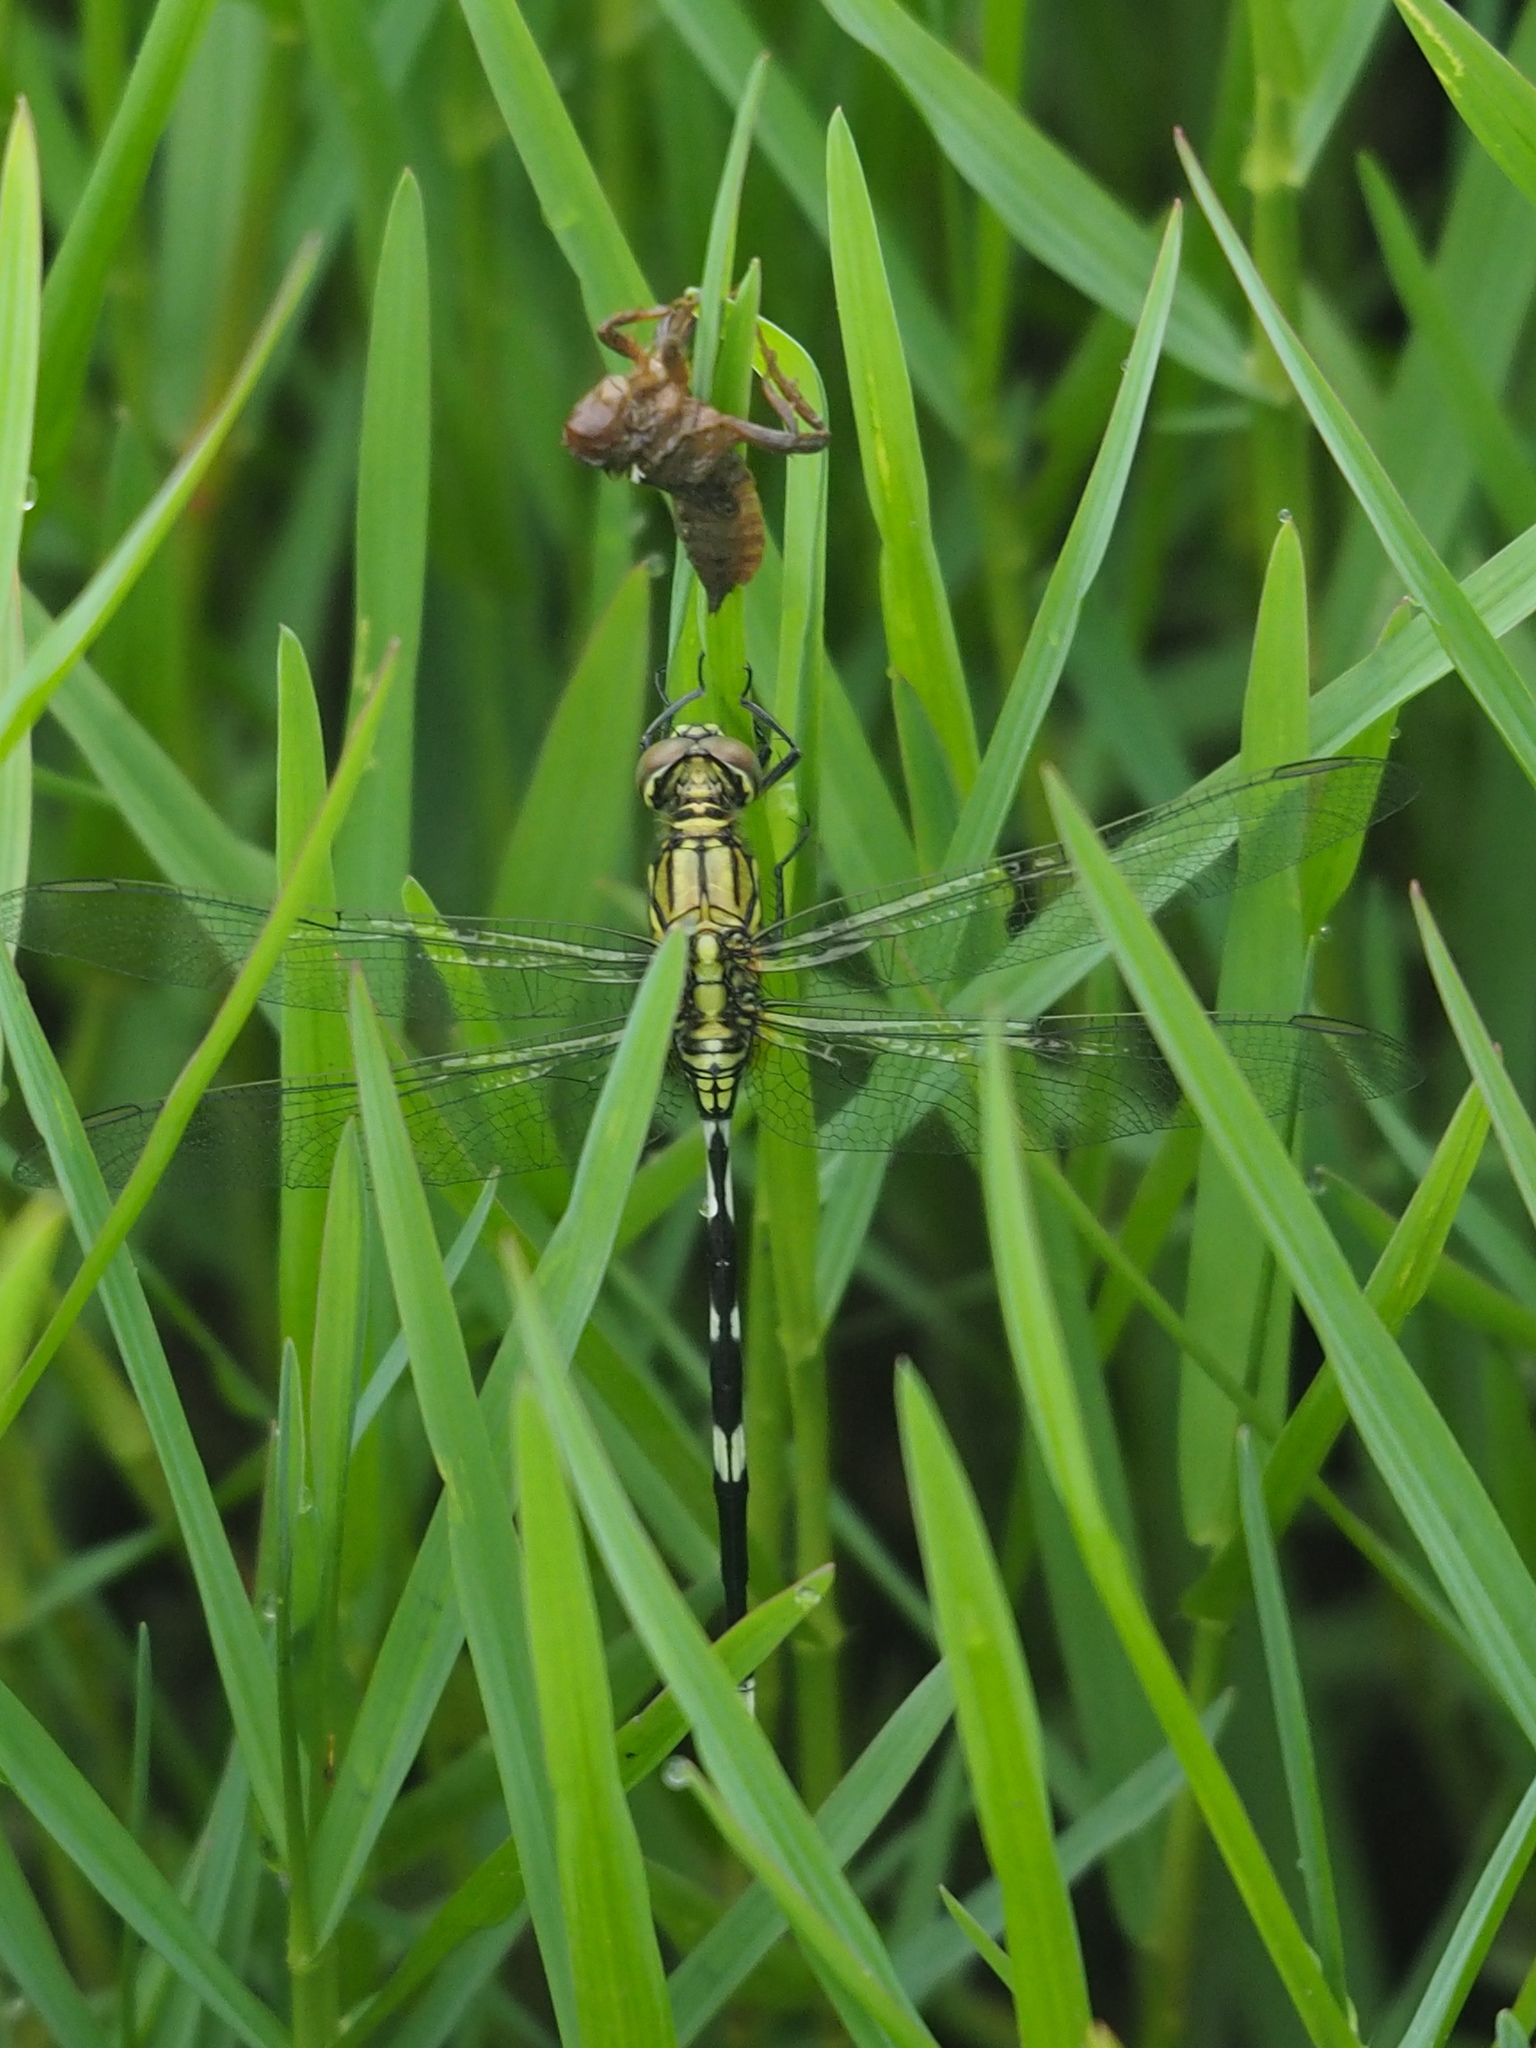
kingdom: Animalia
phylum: Arthropoda
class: Insecta
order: Odonata
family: Libellulidae
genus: Orthetrum
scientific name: Orthetrum sabina
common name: Slender skimmer
